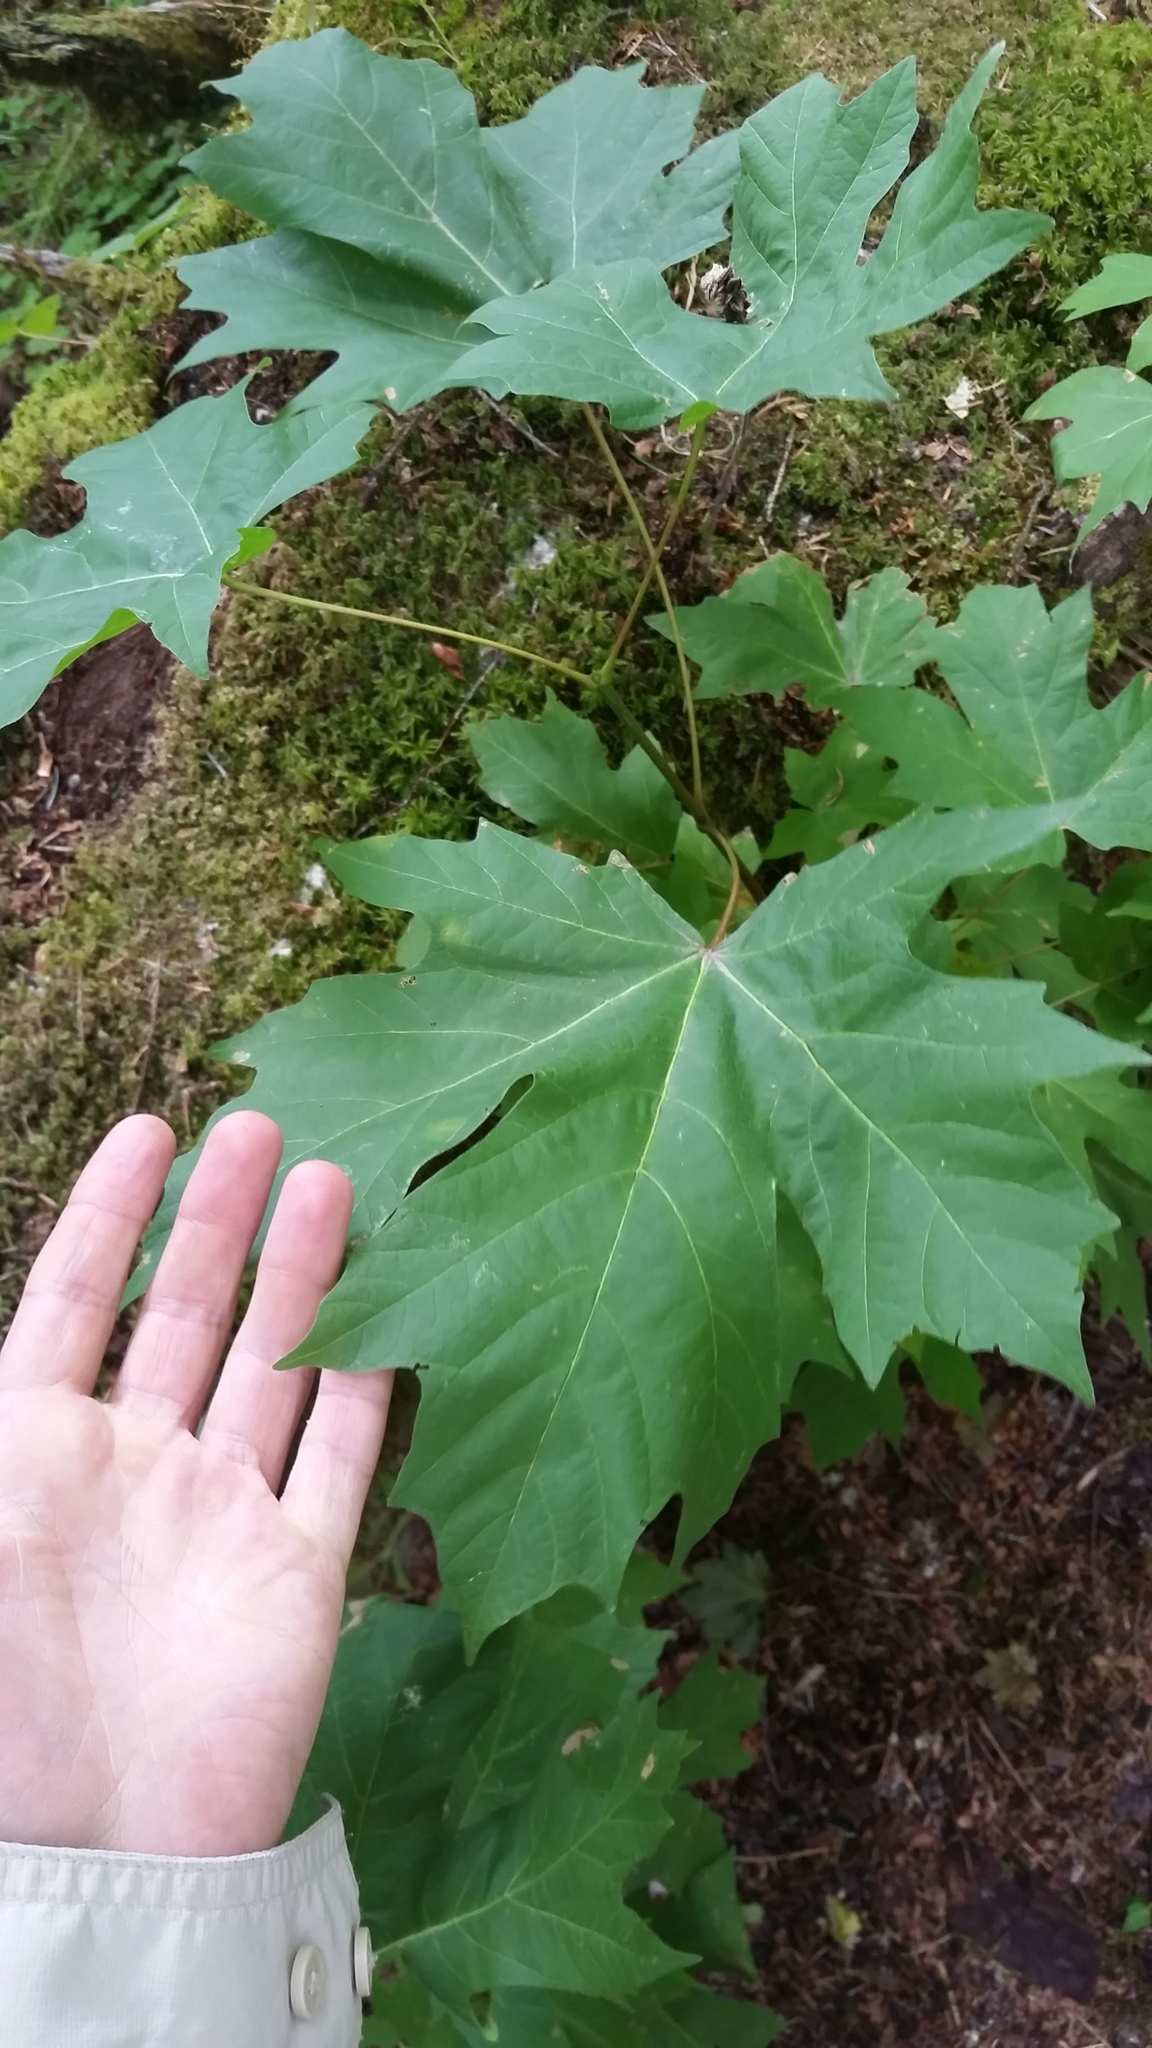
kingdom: Plantae
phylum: Tracheophyta
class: Magnoliopsida
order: Sapindales
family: Sapindaceae
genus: Acer
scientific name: Acer macrophyllum
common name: Oregon maple
